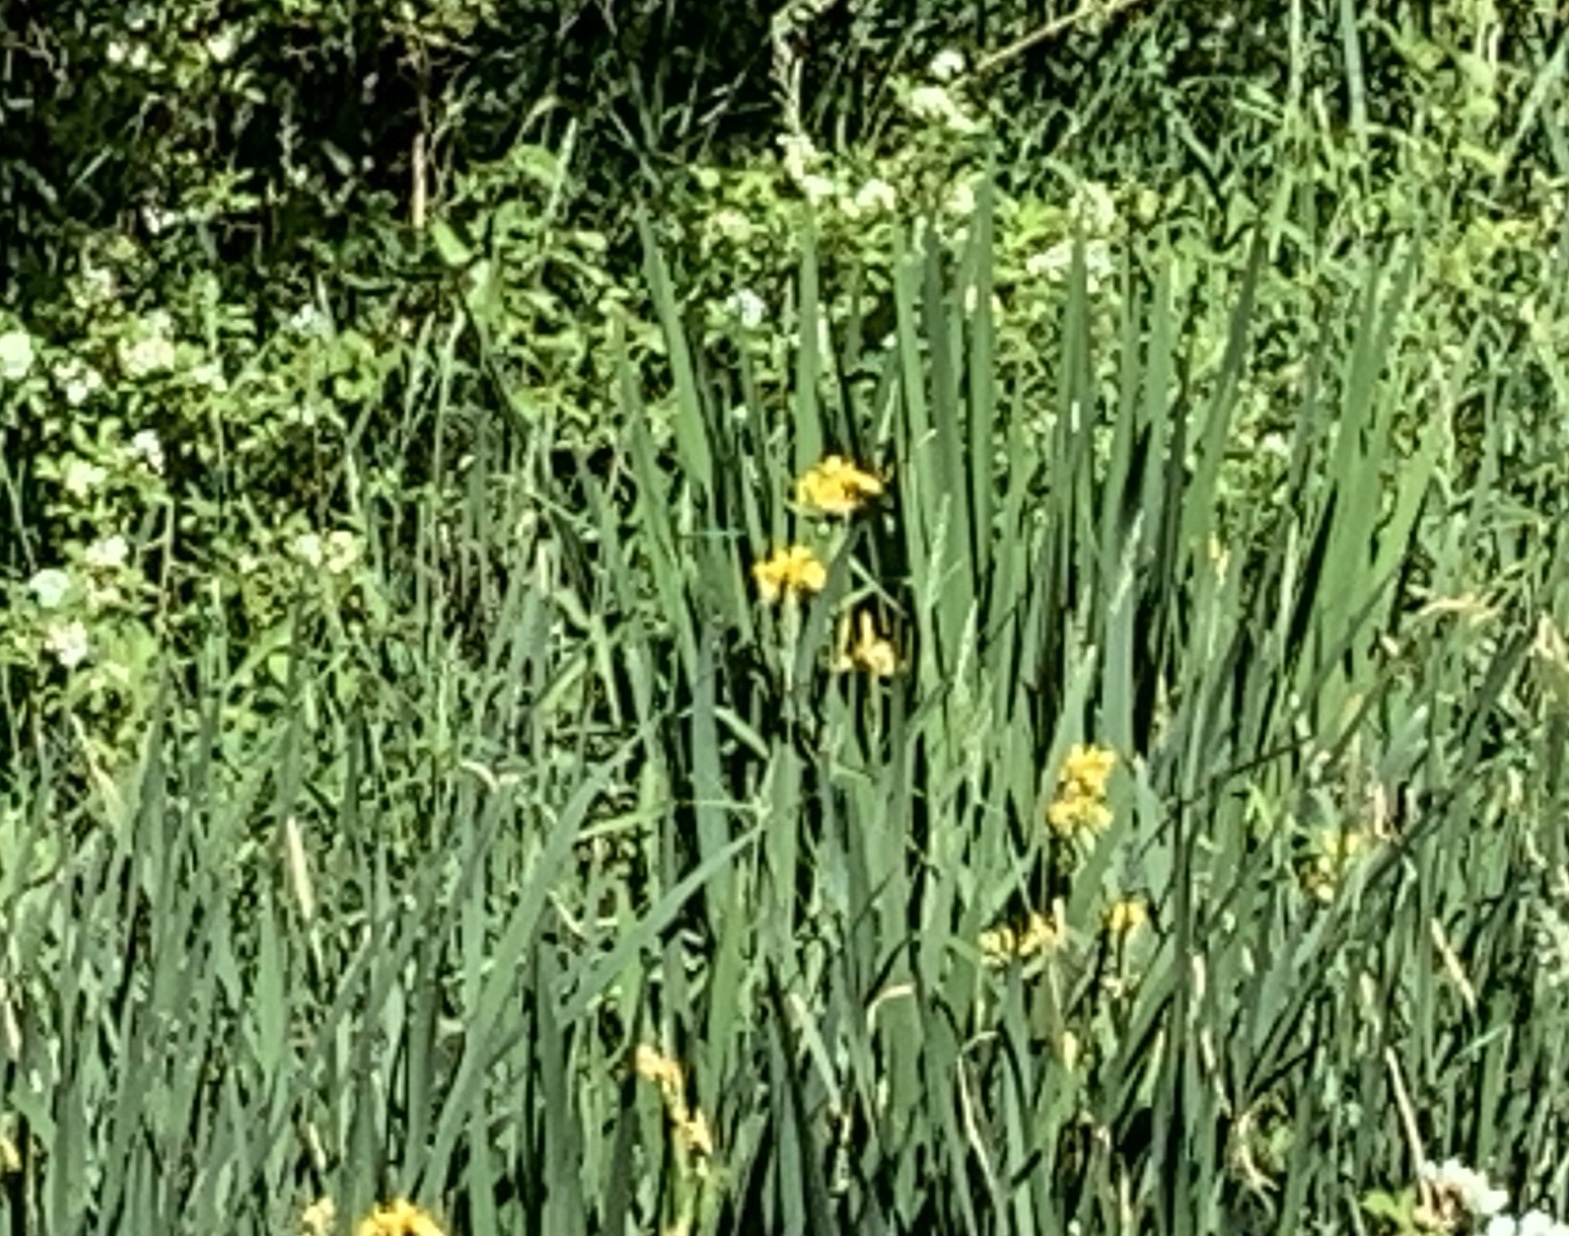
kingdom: Plantae
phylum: Tracheophyta
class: Liliopsida
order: Asparagales
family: Iridaceae
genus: Iris
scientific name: Iris pseudacorus
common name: Yellow flag
